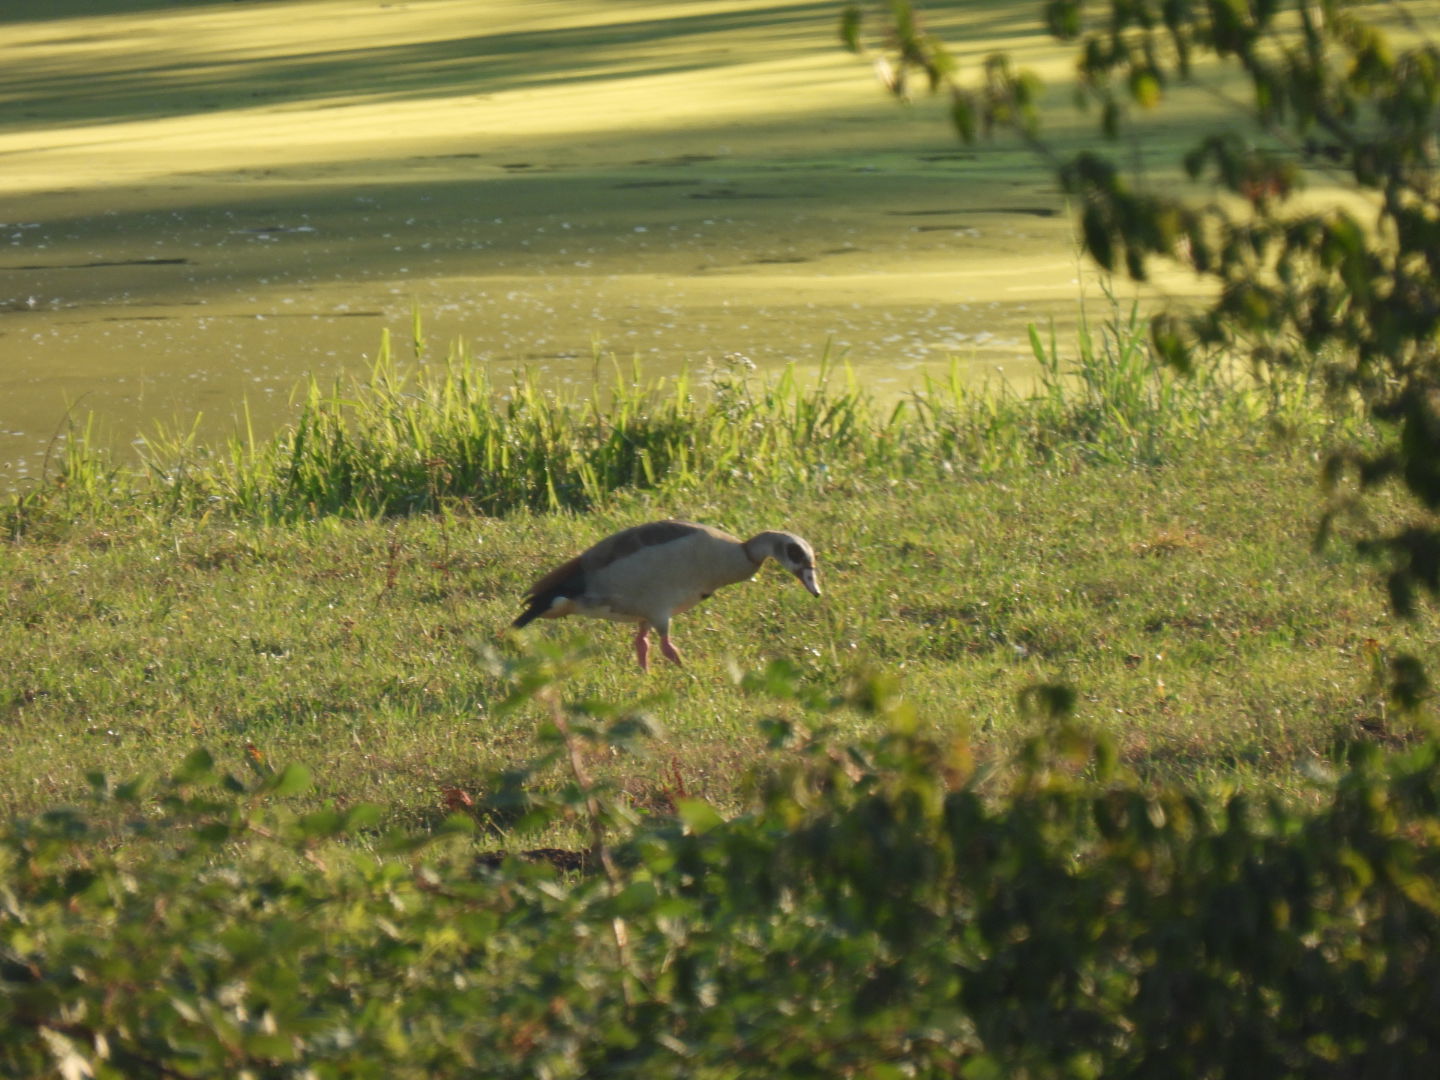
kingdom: Animalia
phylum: Chordata
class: Aves
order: Anseriformes
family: Anatidae
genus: Alopochen
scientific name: Alopochen aegyptiaca
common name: Egyptian goose
